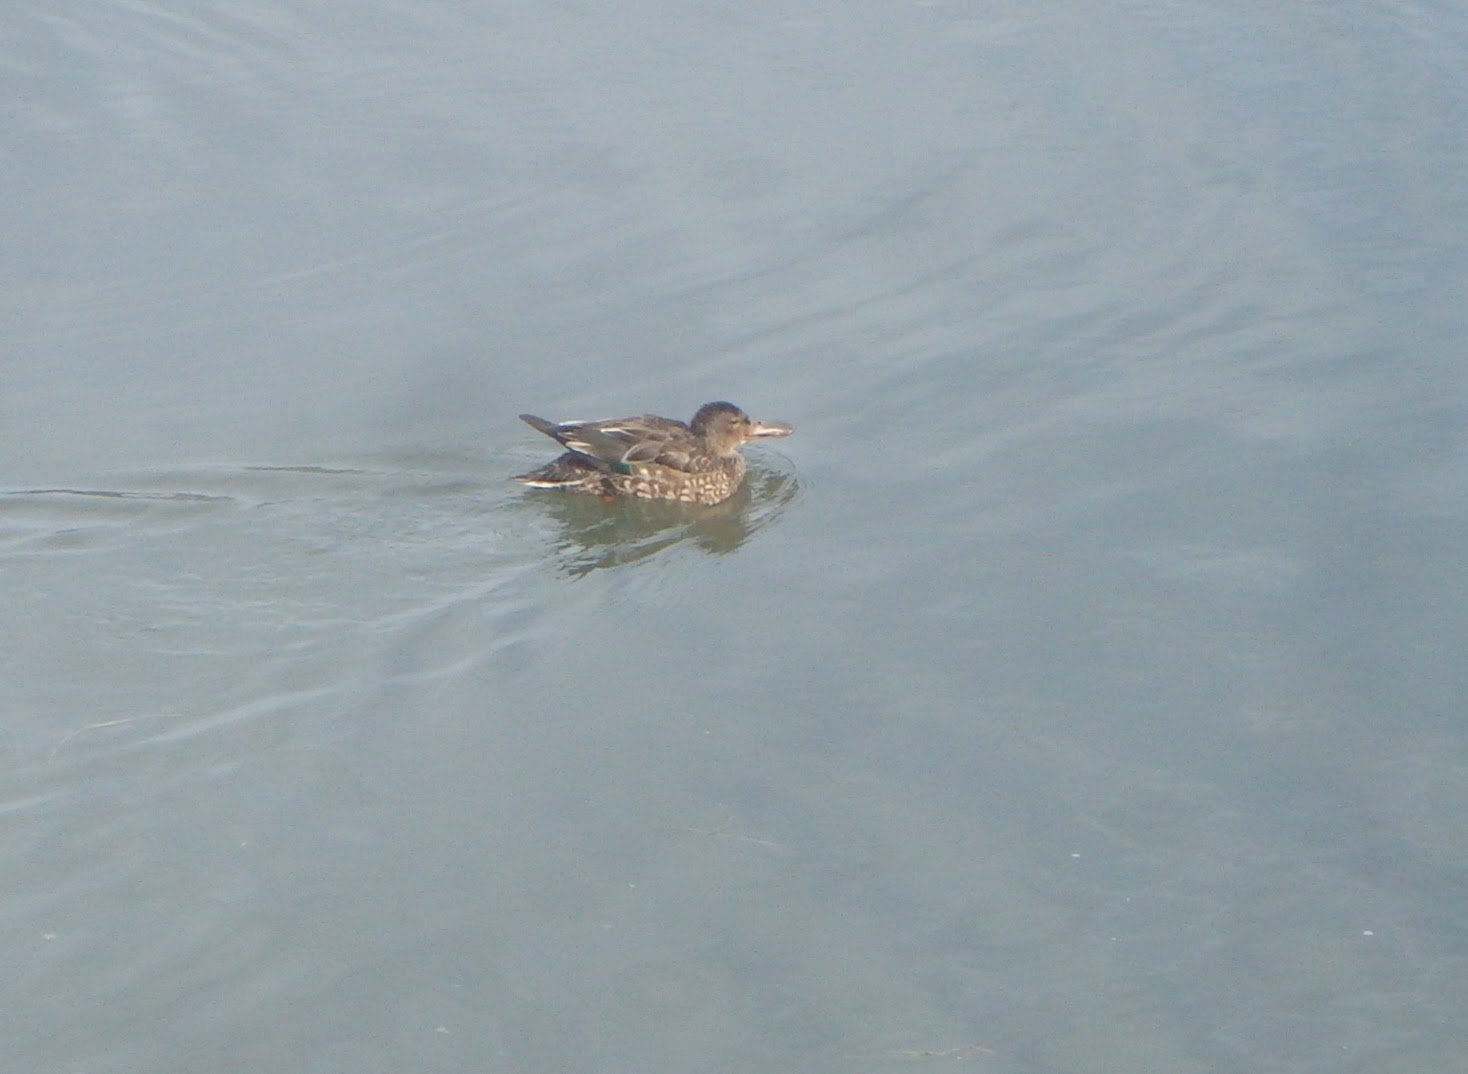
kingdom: Animalia
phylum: Chordata
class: Aves
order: Anseriformes
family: Anatidae
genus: Spatula
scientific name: Spatula clypeata
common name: Northern shoveler
